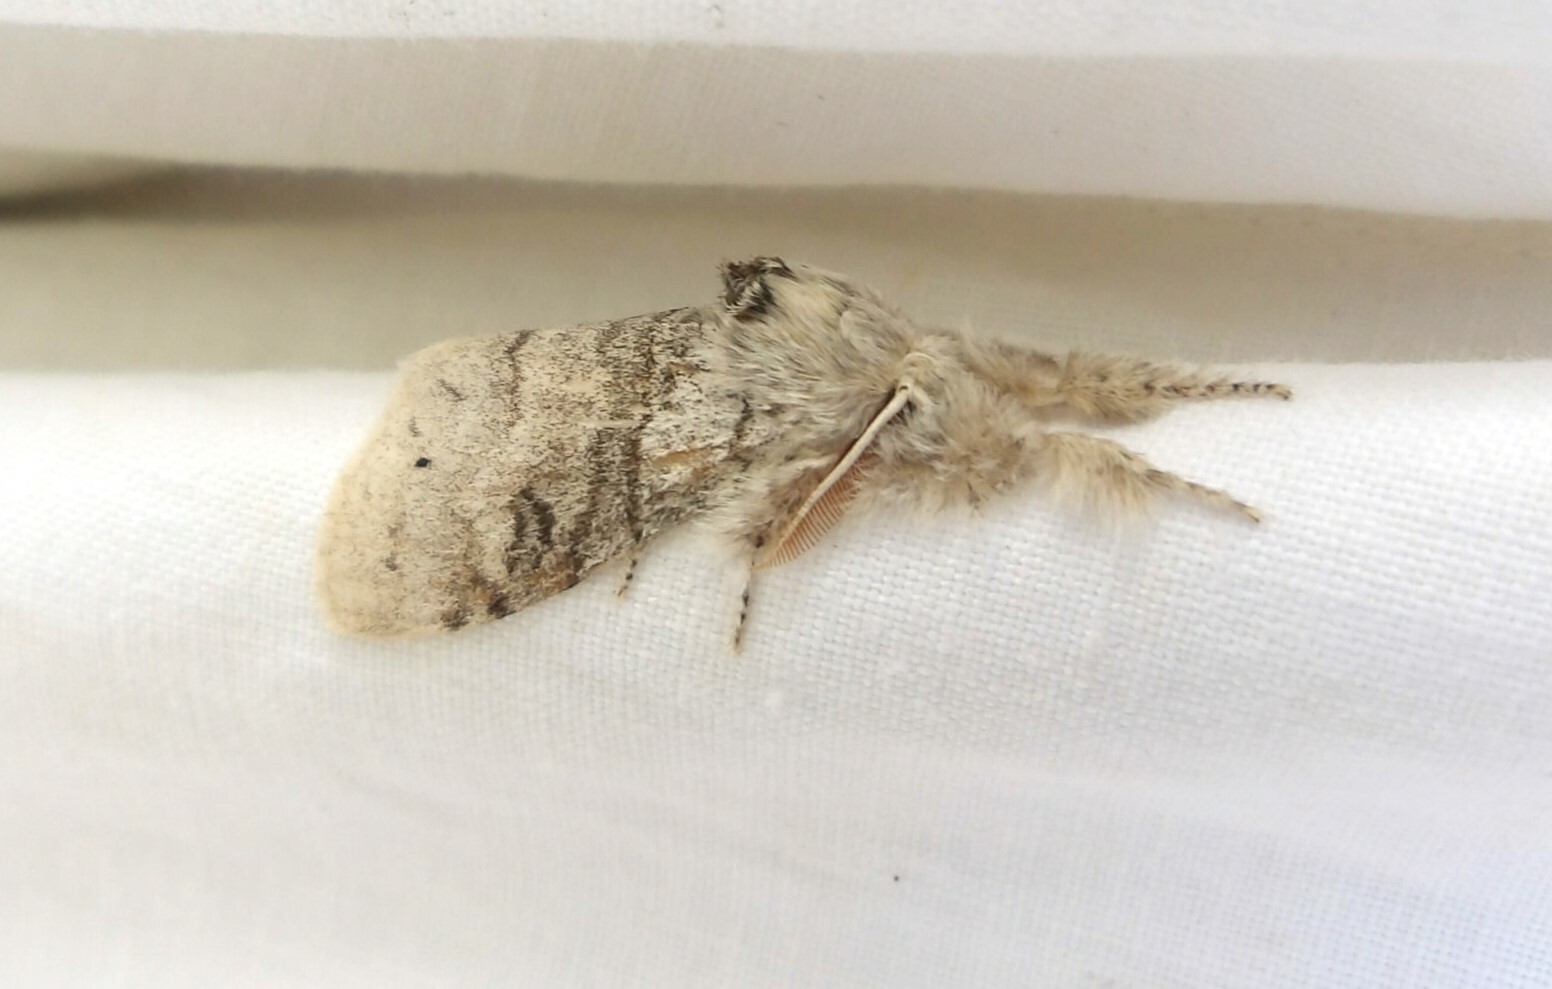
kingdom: Animalia
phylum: Arthropoda
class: Insecta
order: Lepidoptera
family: Erebidae
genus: Calliteara
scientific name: Calliteara pudibunda
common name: Pale tussock
